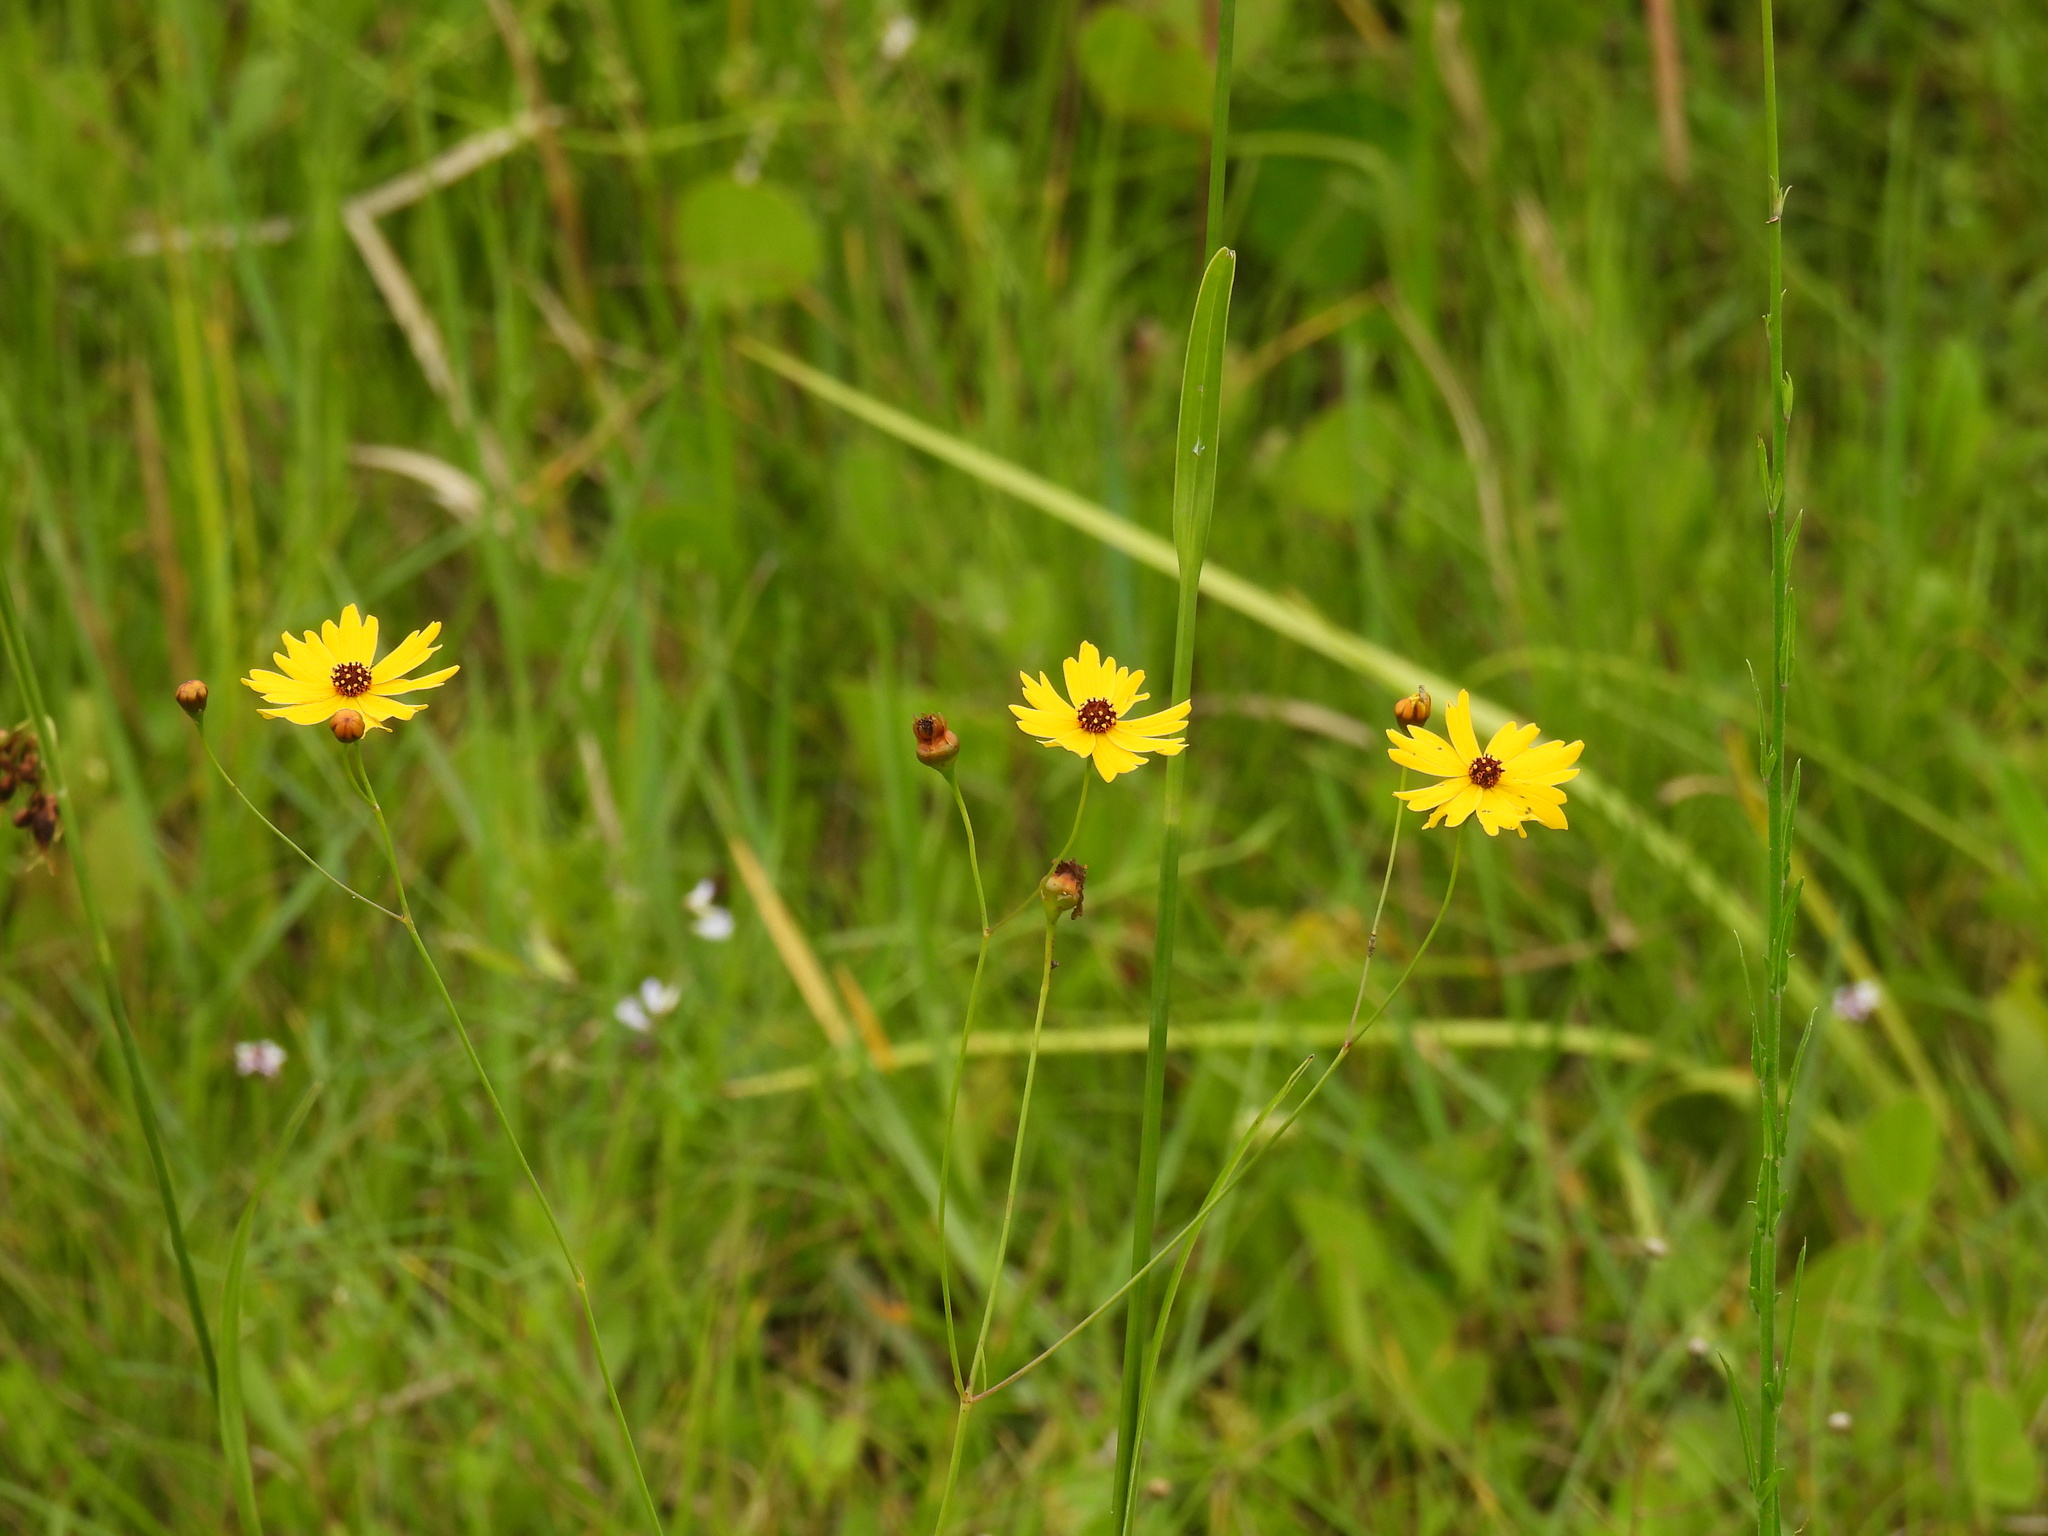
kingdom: Plantae
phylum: Tracheophyta
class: Magnoliopsida
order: Asterales
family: Asteraceae
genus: Coreopsis
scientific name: Coreopsis leavenworthii
